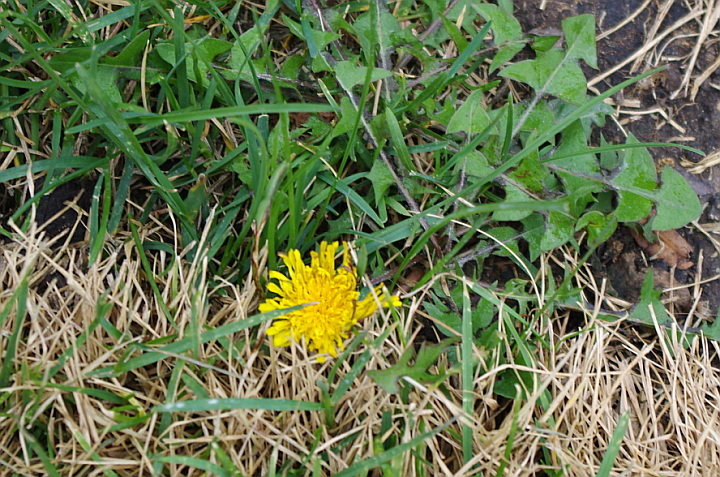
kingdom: Plantae
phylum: Tracheophyta
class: Magnoliopsida
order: Asterales
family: Asteraceae
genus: Taraxacum
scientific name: Taraxacum officinale
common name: Common dandelion
